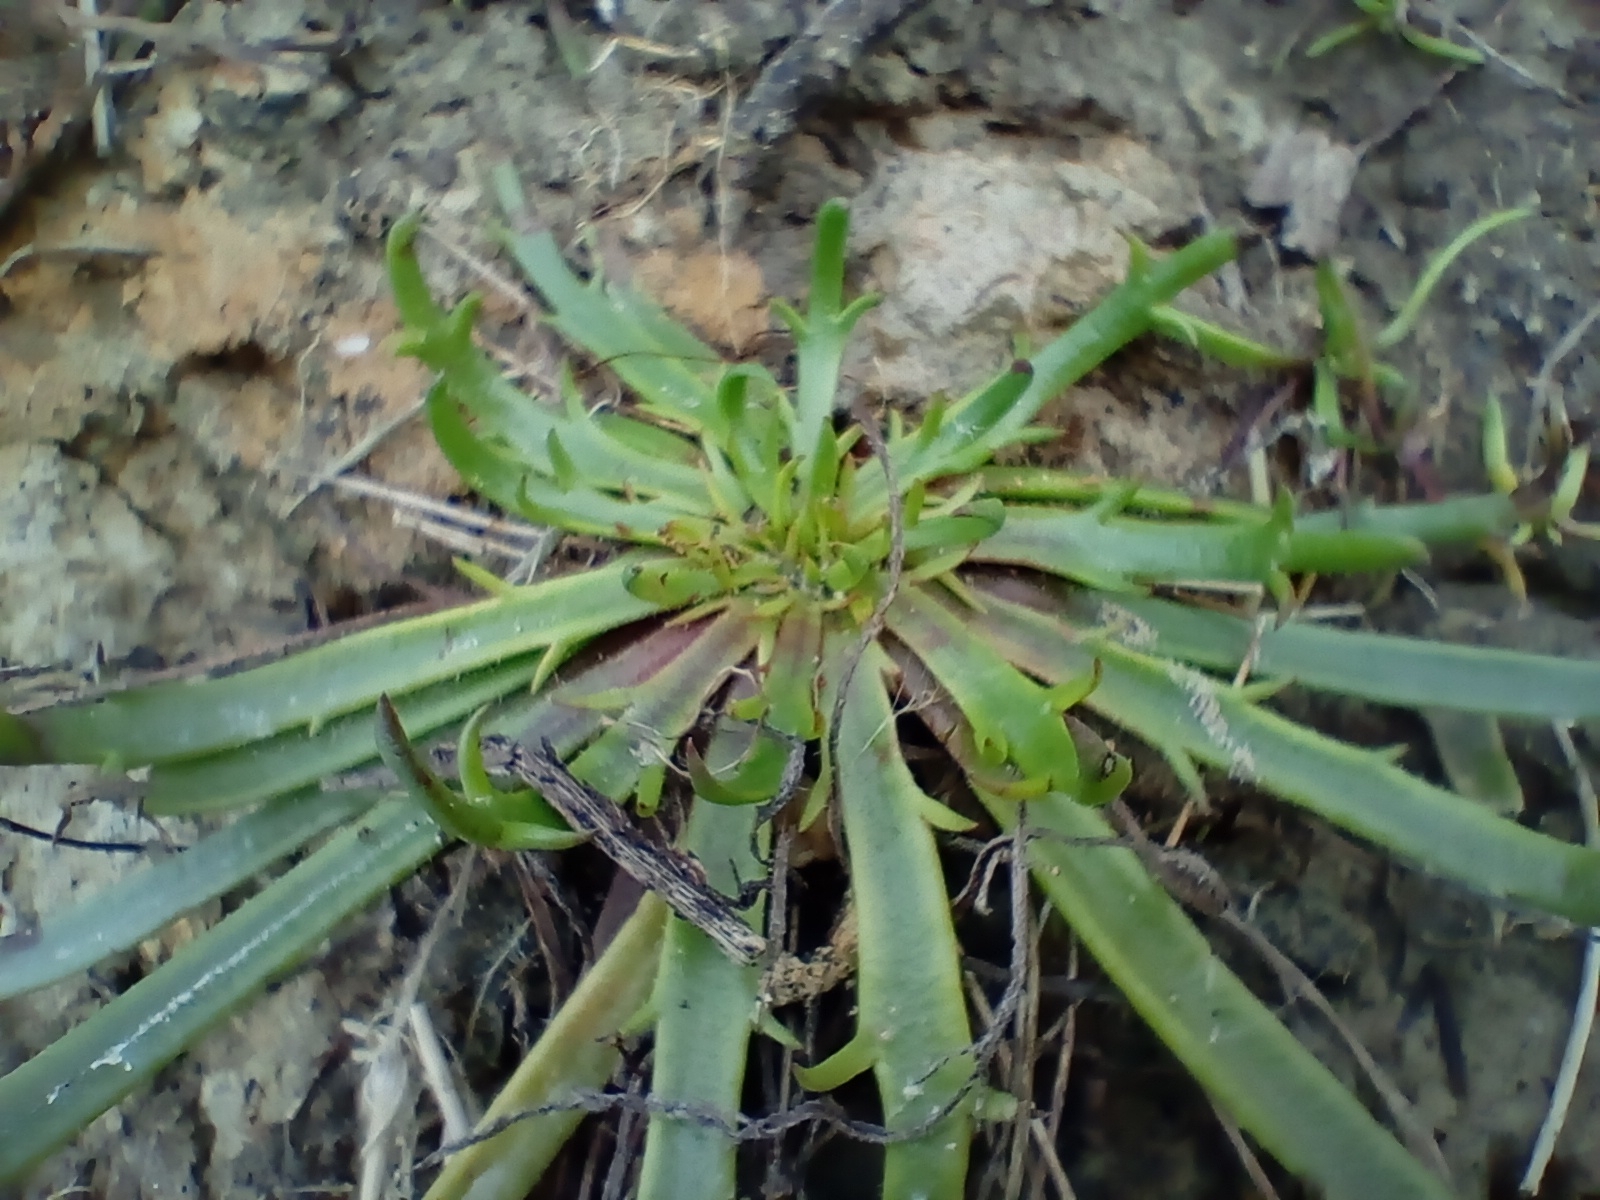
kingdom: Plantae
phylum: Tracheophyta
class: Magnoliopsida
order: Lamiales
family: Plantaginaceae
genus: Plantago
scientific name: Plantago coronopus
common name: Buck's-horn plantain
